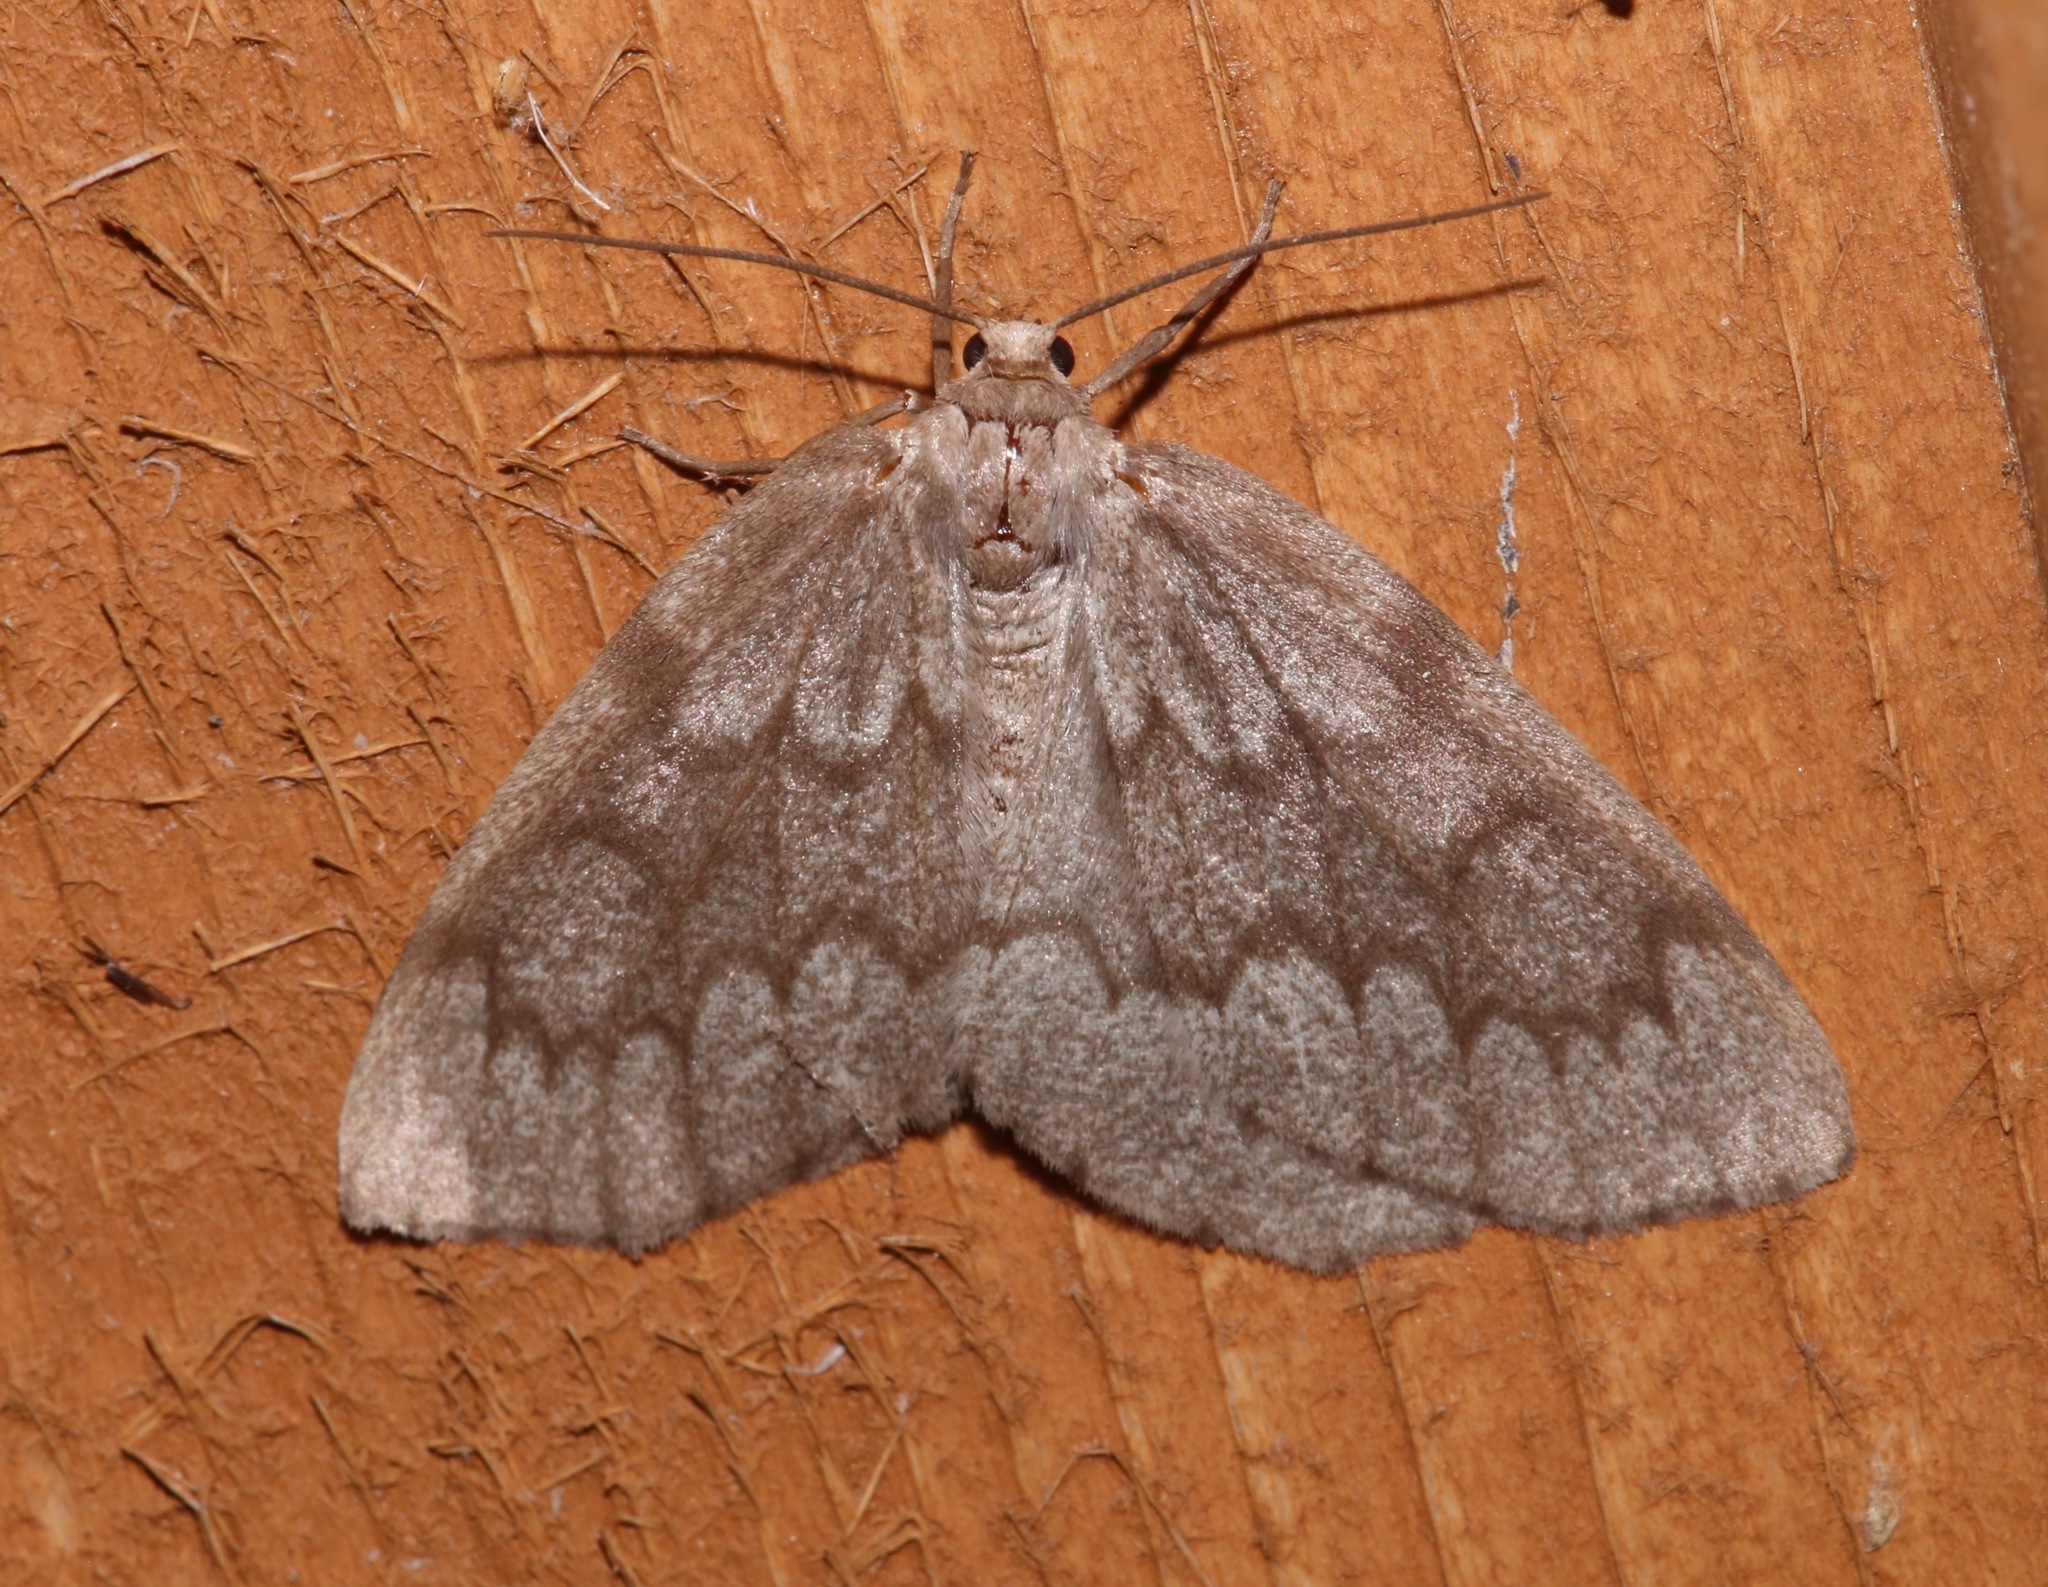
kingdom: Animalia
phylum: Arthropoda
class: Insecta
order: Lepidoptera
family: Geometridae
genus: Nepytia
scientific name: Nepytia semiclusaria
